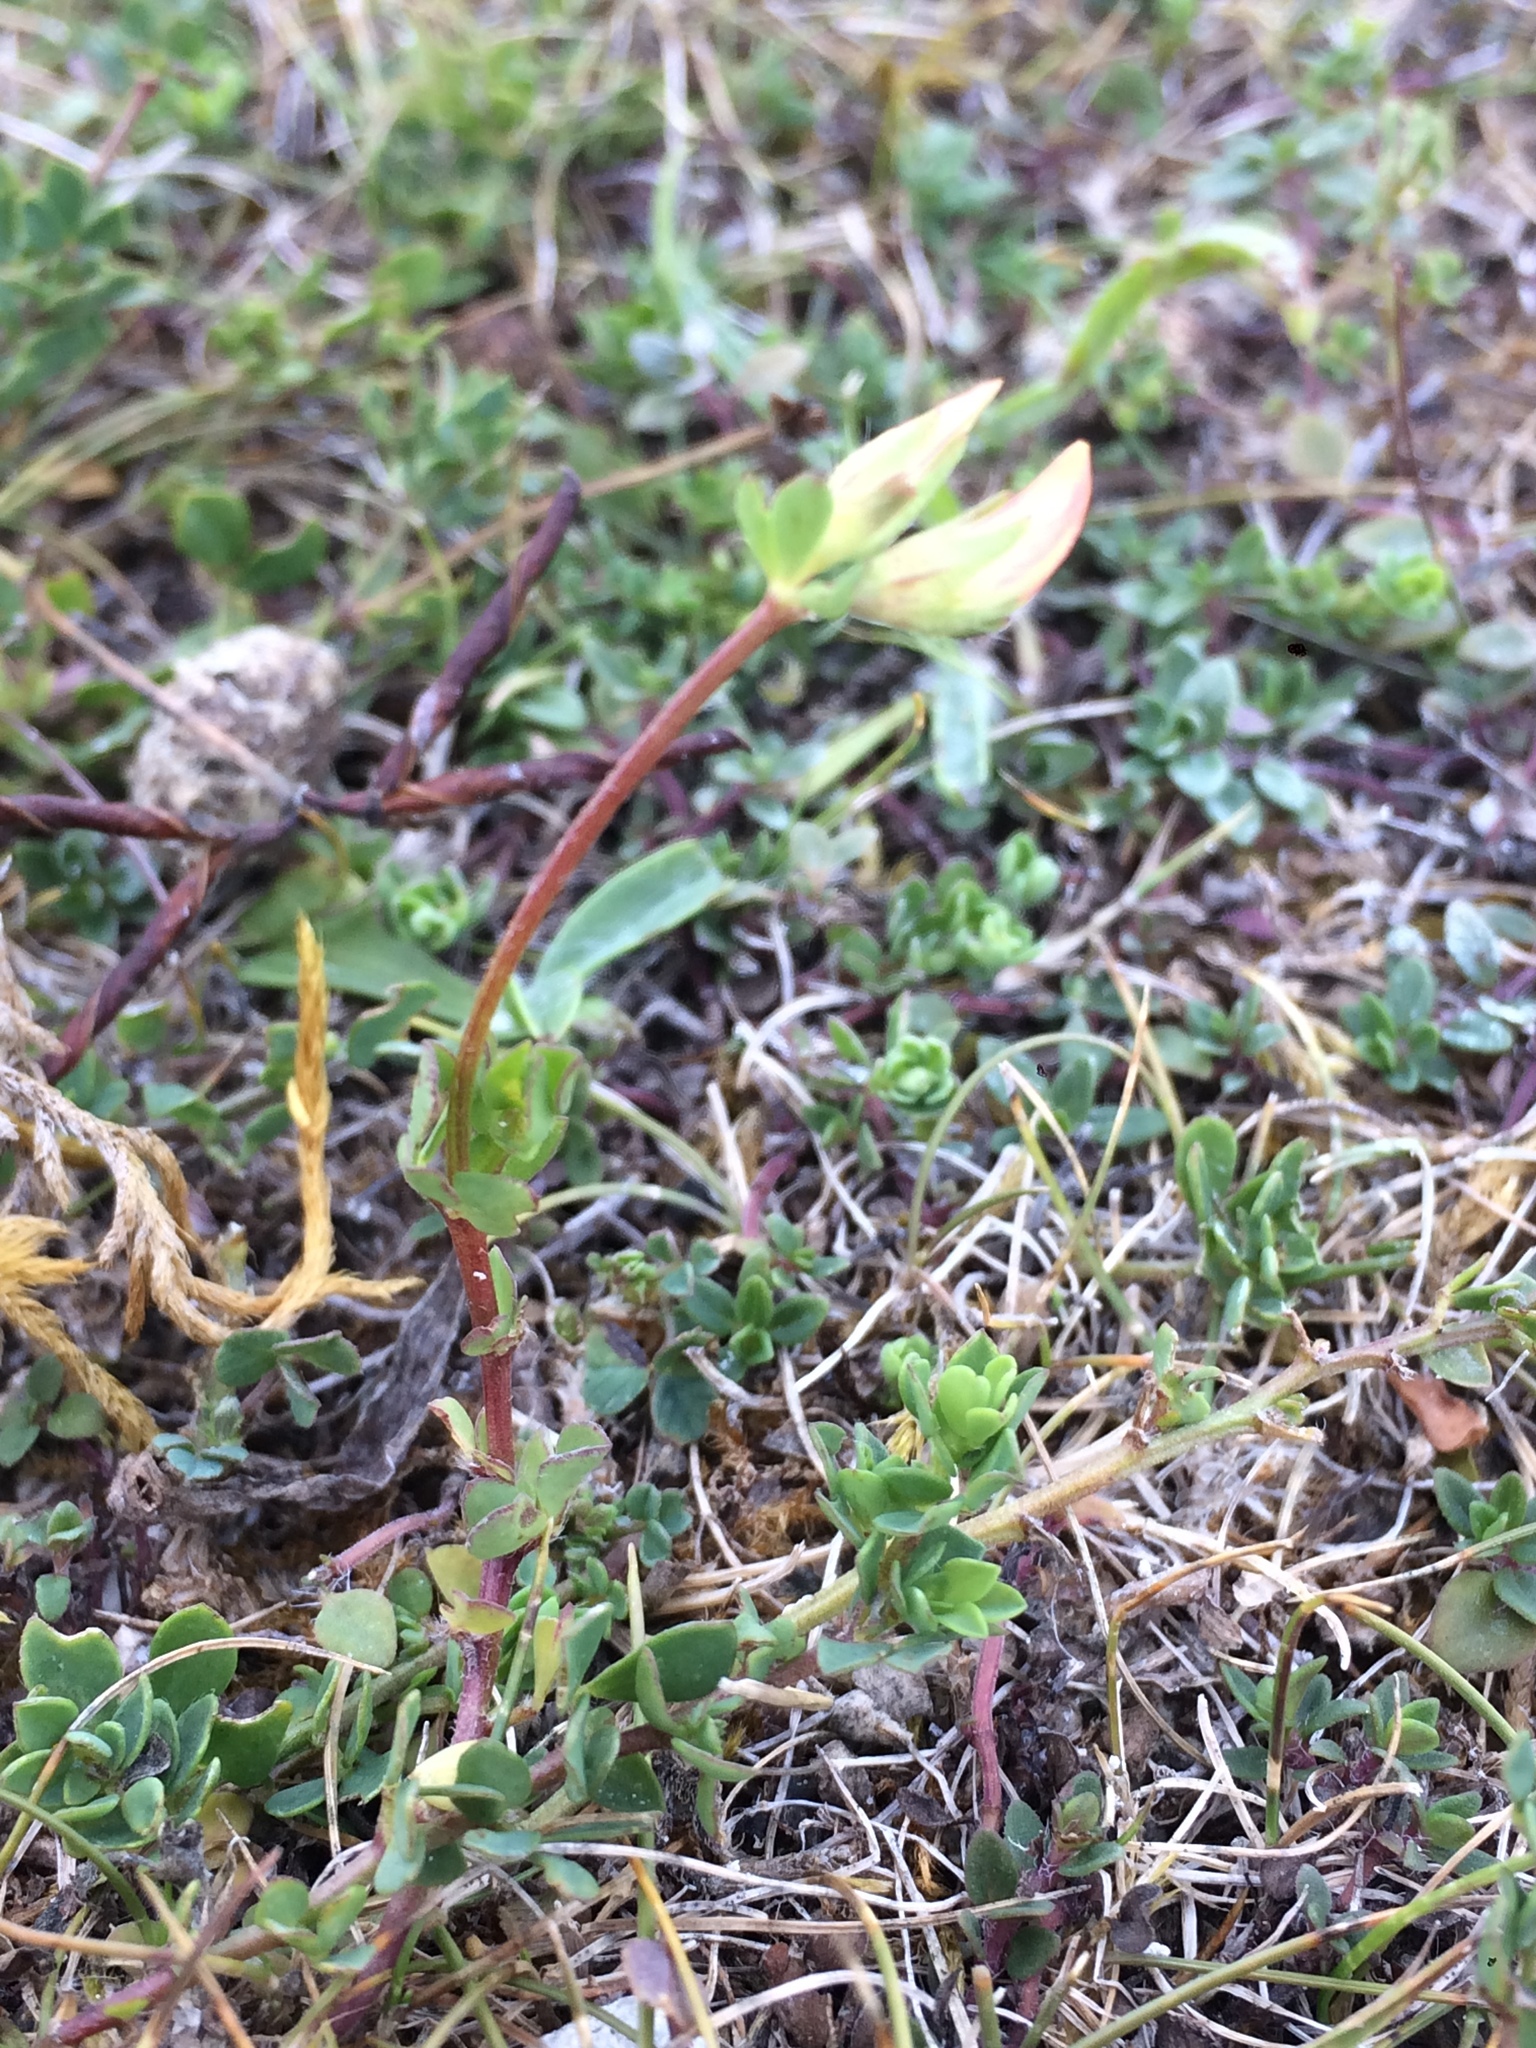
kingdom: Plantae
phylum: Tracheophyta
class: Magnoliopsida
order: Fabales
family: Fabaceae
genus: Lotus
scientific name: Lotus corniculatus
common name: Common bird's-foot-trefoil
